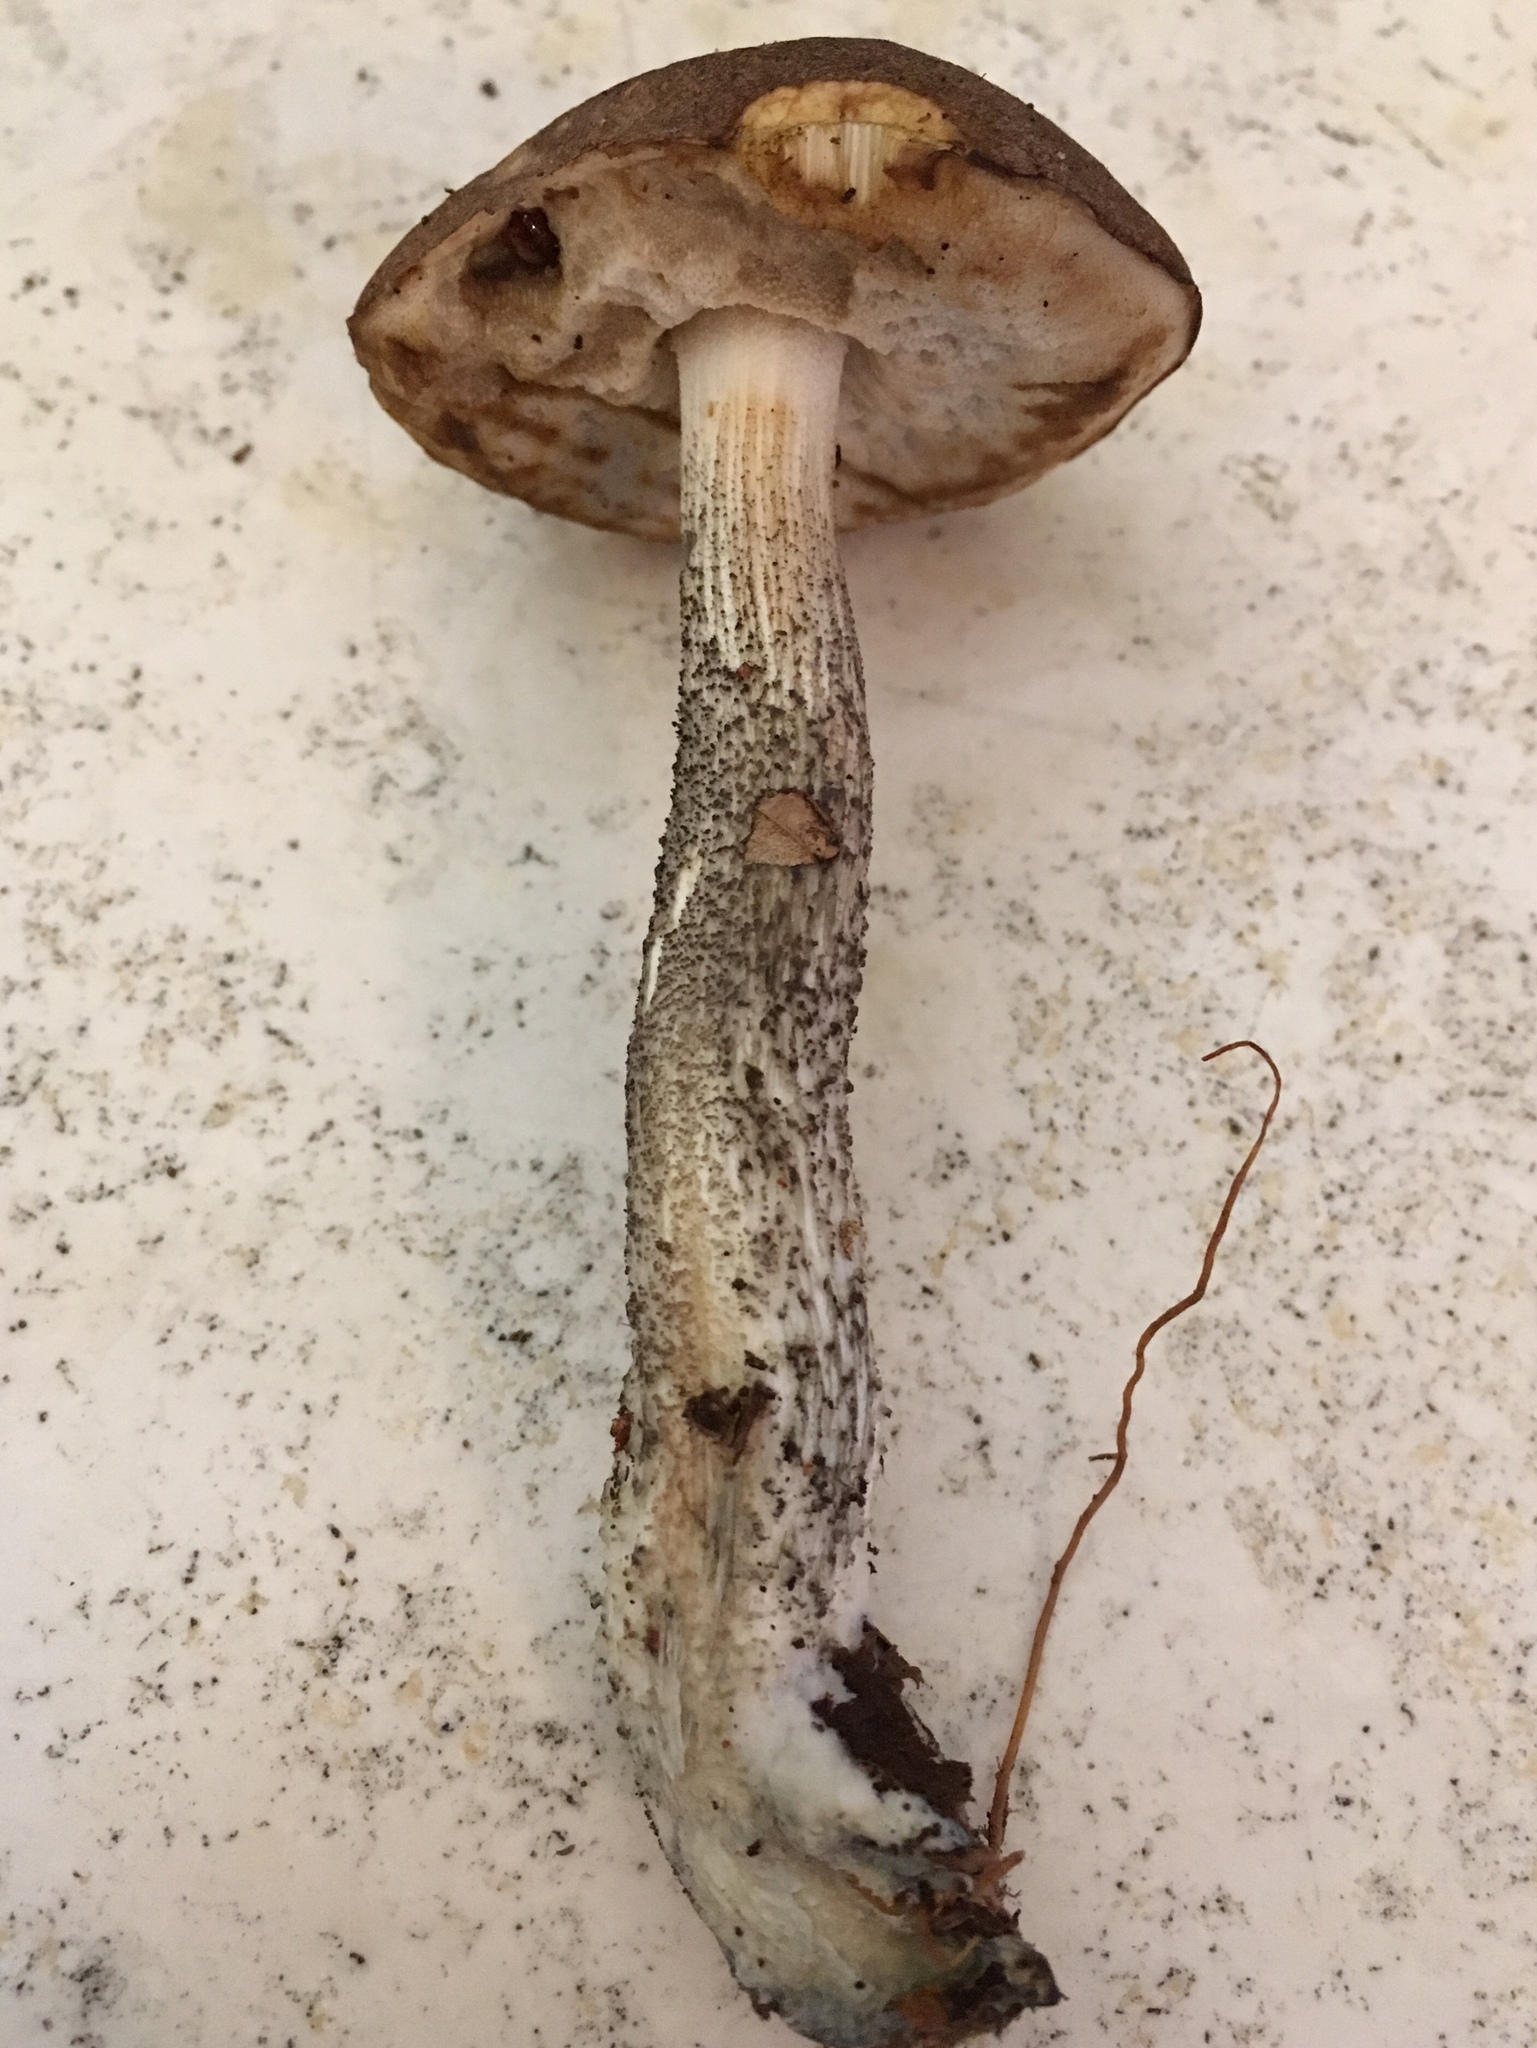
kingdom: Fungi
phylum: Basidiomycota
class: Agaricomycetes
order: Boletales
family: Boletaceae
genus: Leccinum
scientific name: Leccinum scabrum
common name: Blushing bolete
